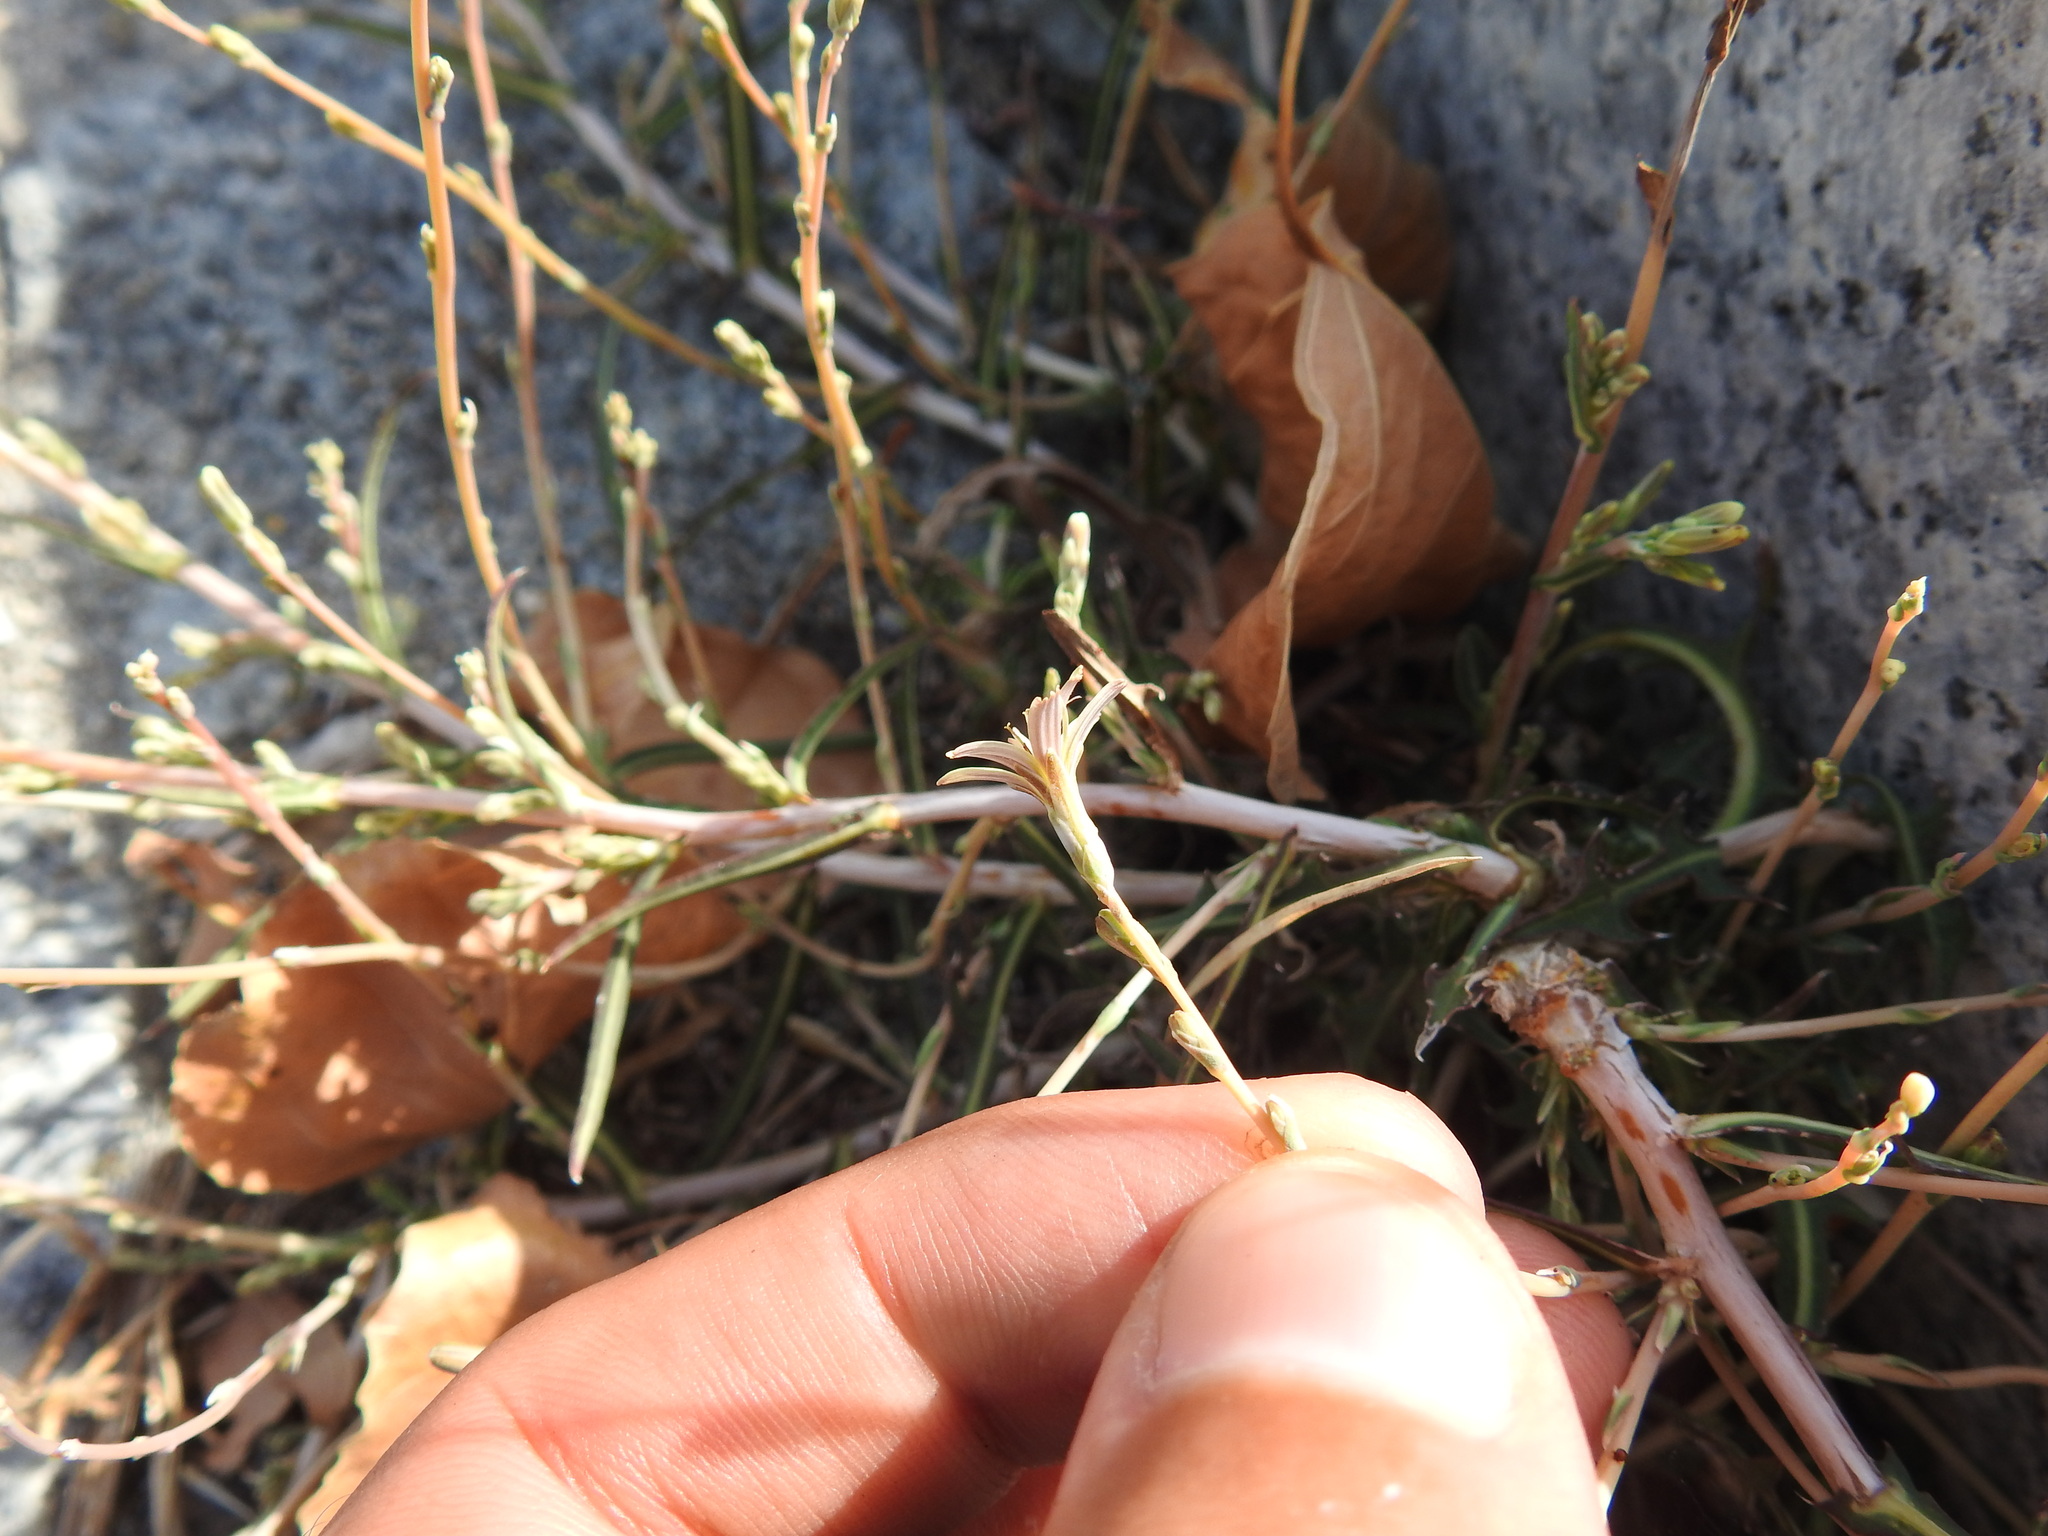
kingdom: Plantae
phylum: Tracheophyta
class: Magnoliopsida
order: Asterales
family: Asteraceae
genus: Lactuca
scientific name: Lactuca saligna
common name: Wild lettuce
